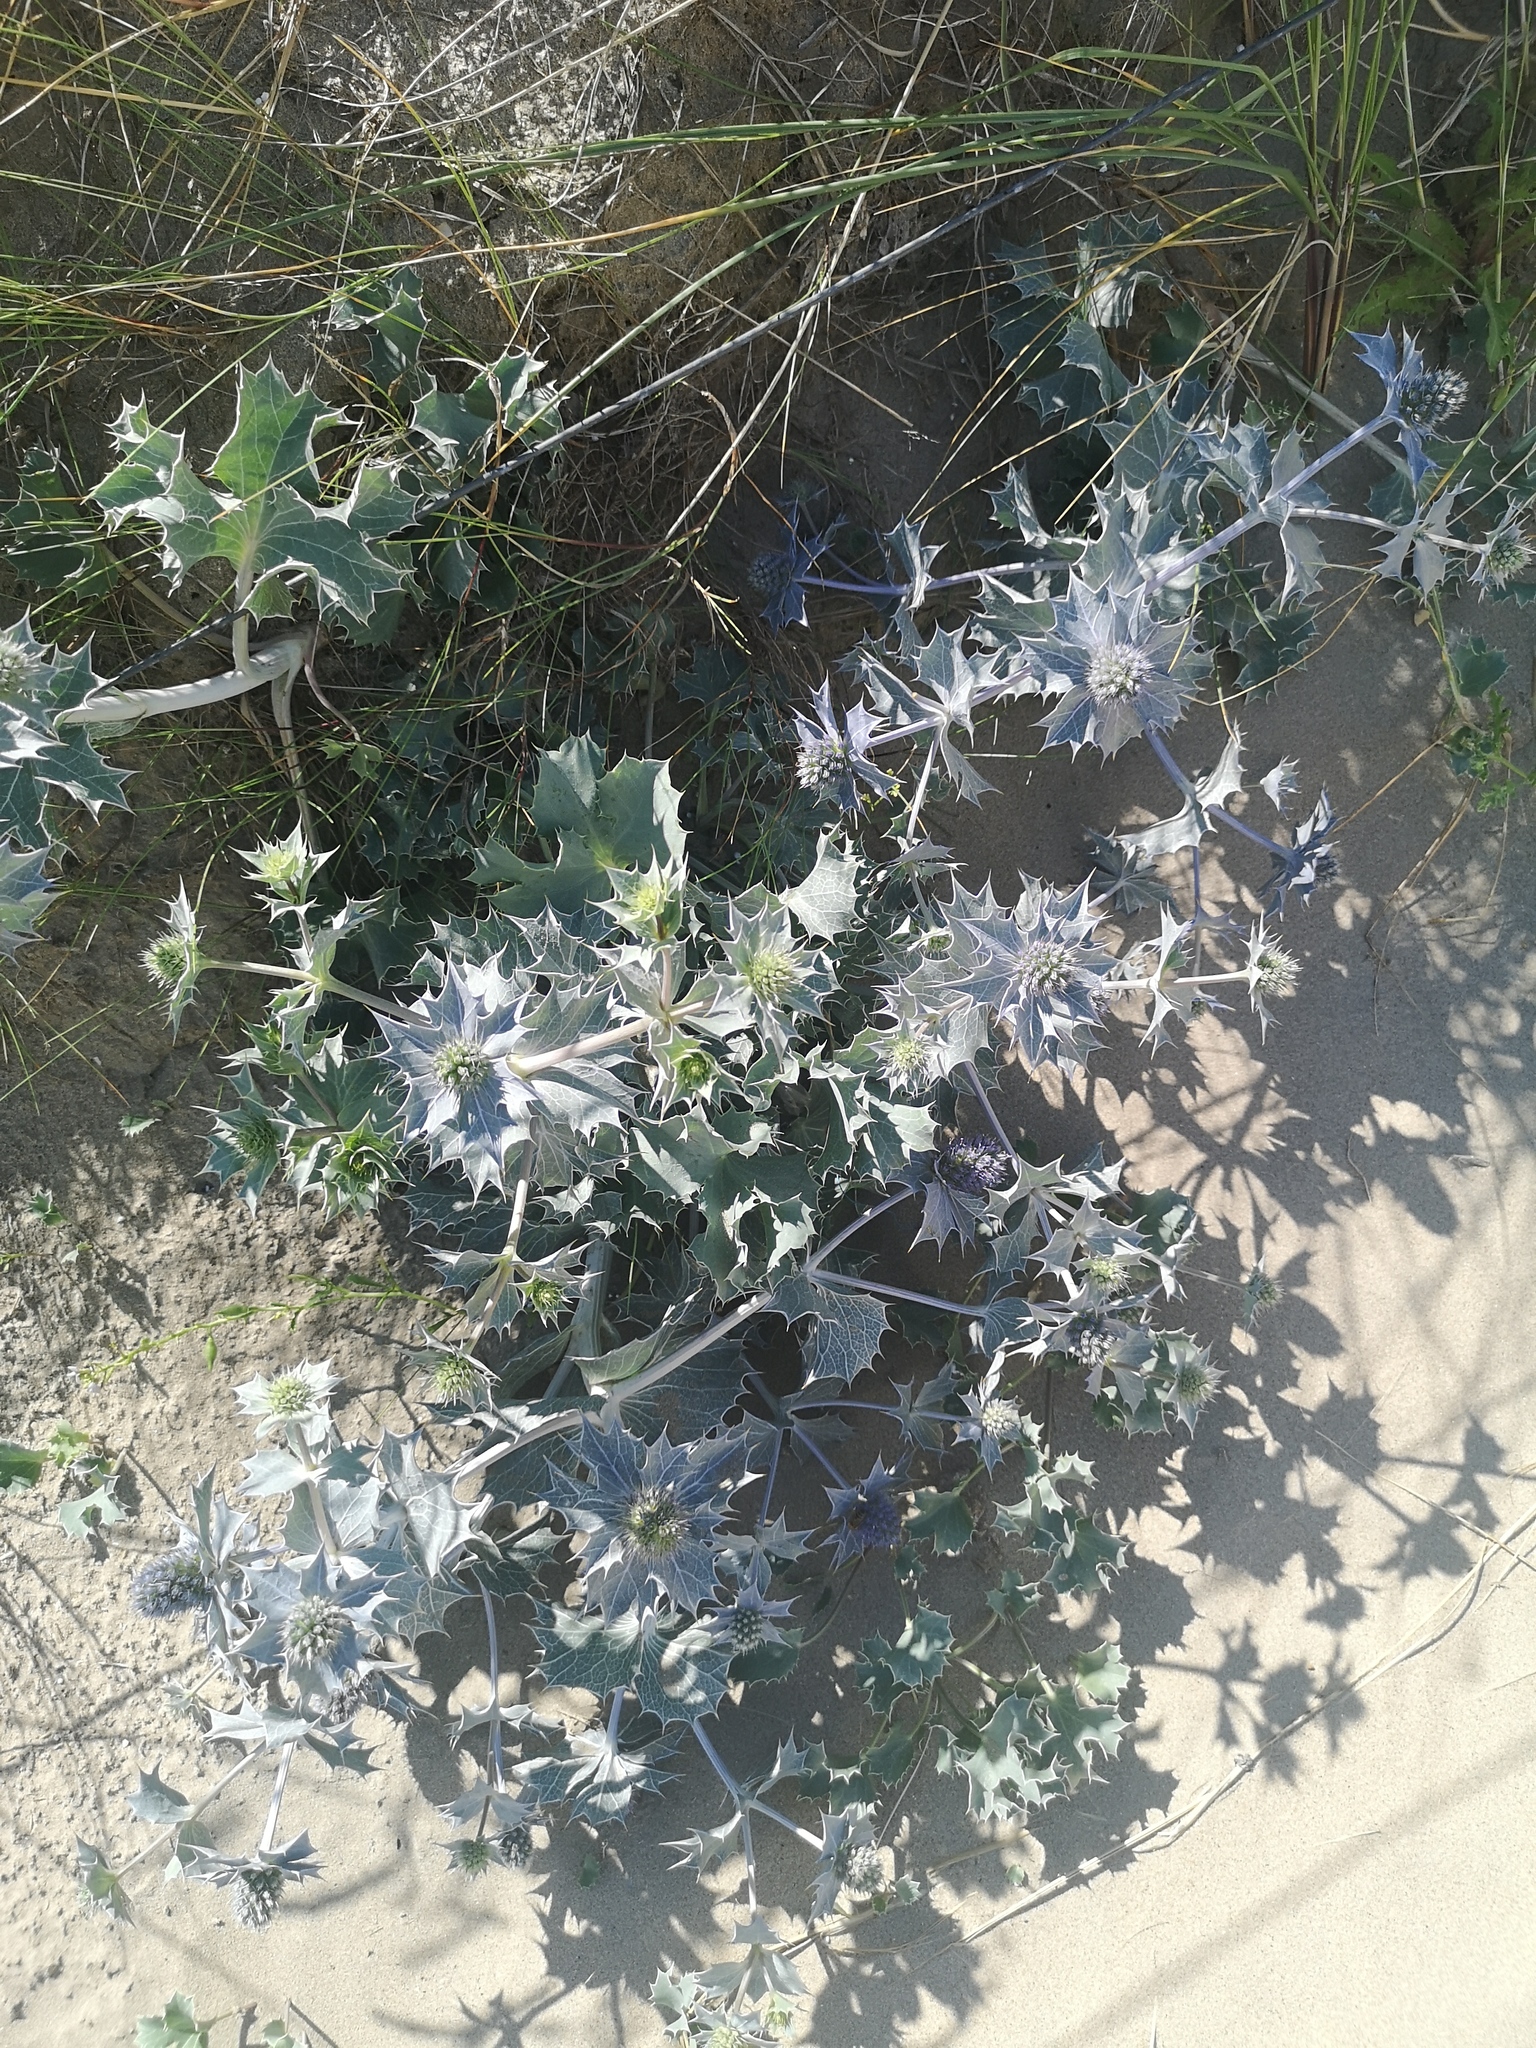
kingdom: Plantae
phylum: Tracheophyta
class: Magnoliopsida
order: Apiales
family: Apiaceae
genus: Eryngium
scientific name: Eryngium maritimum
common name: Sea-holly
